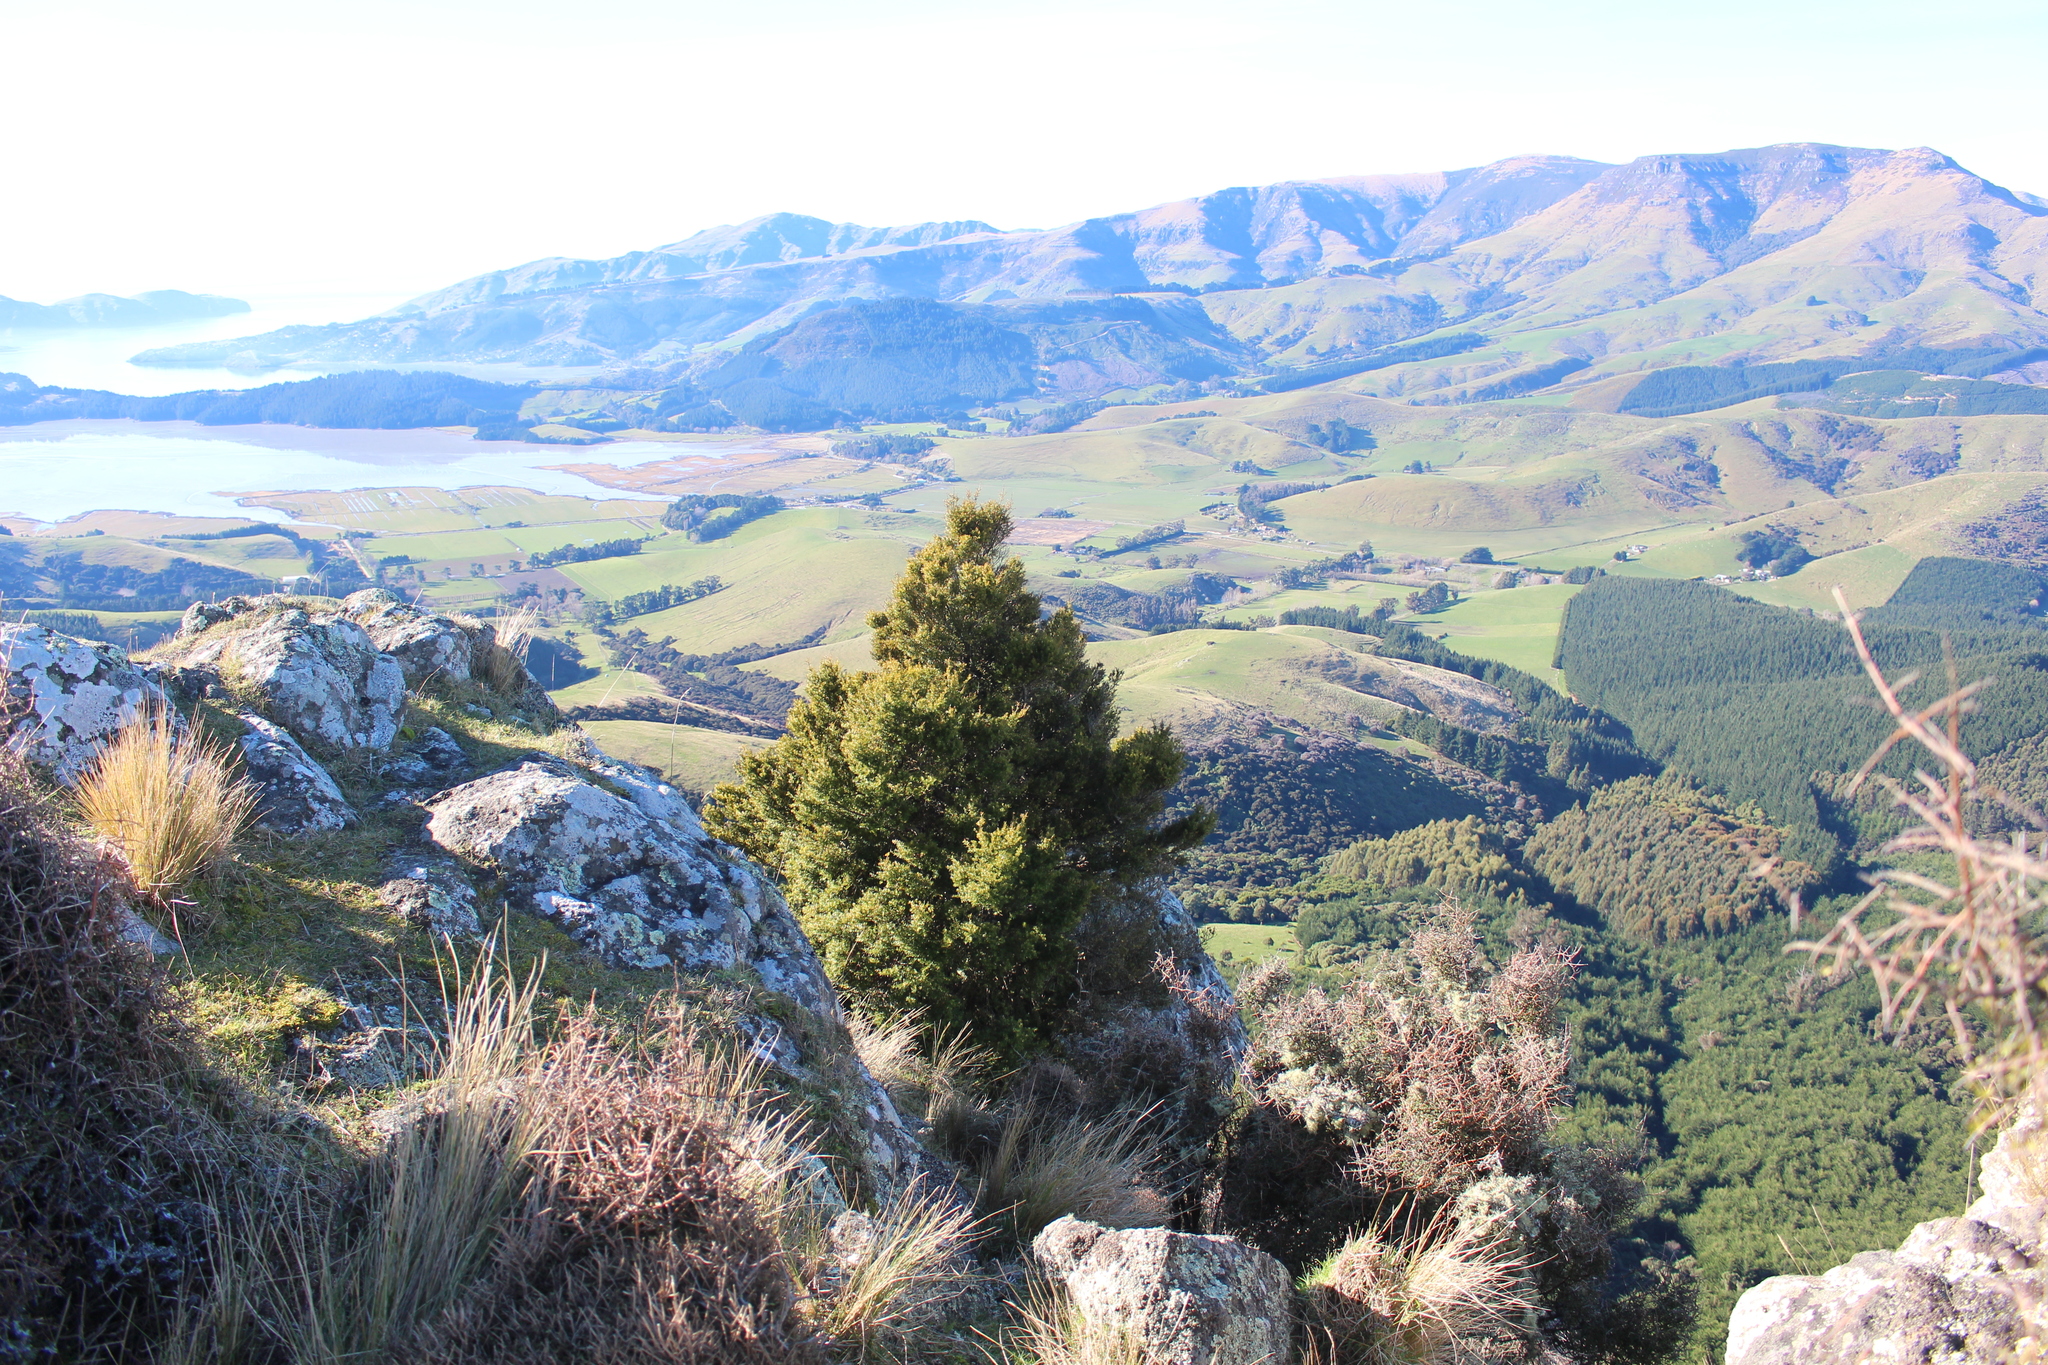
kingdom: Plantae
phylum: Tracheophyta
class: Pinopsida
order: Pinales
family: Podocarpaceae
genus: Podocarpus
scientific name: Podocarpus laetus
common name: Hall's totara
